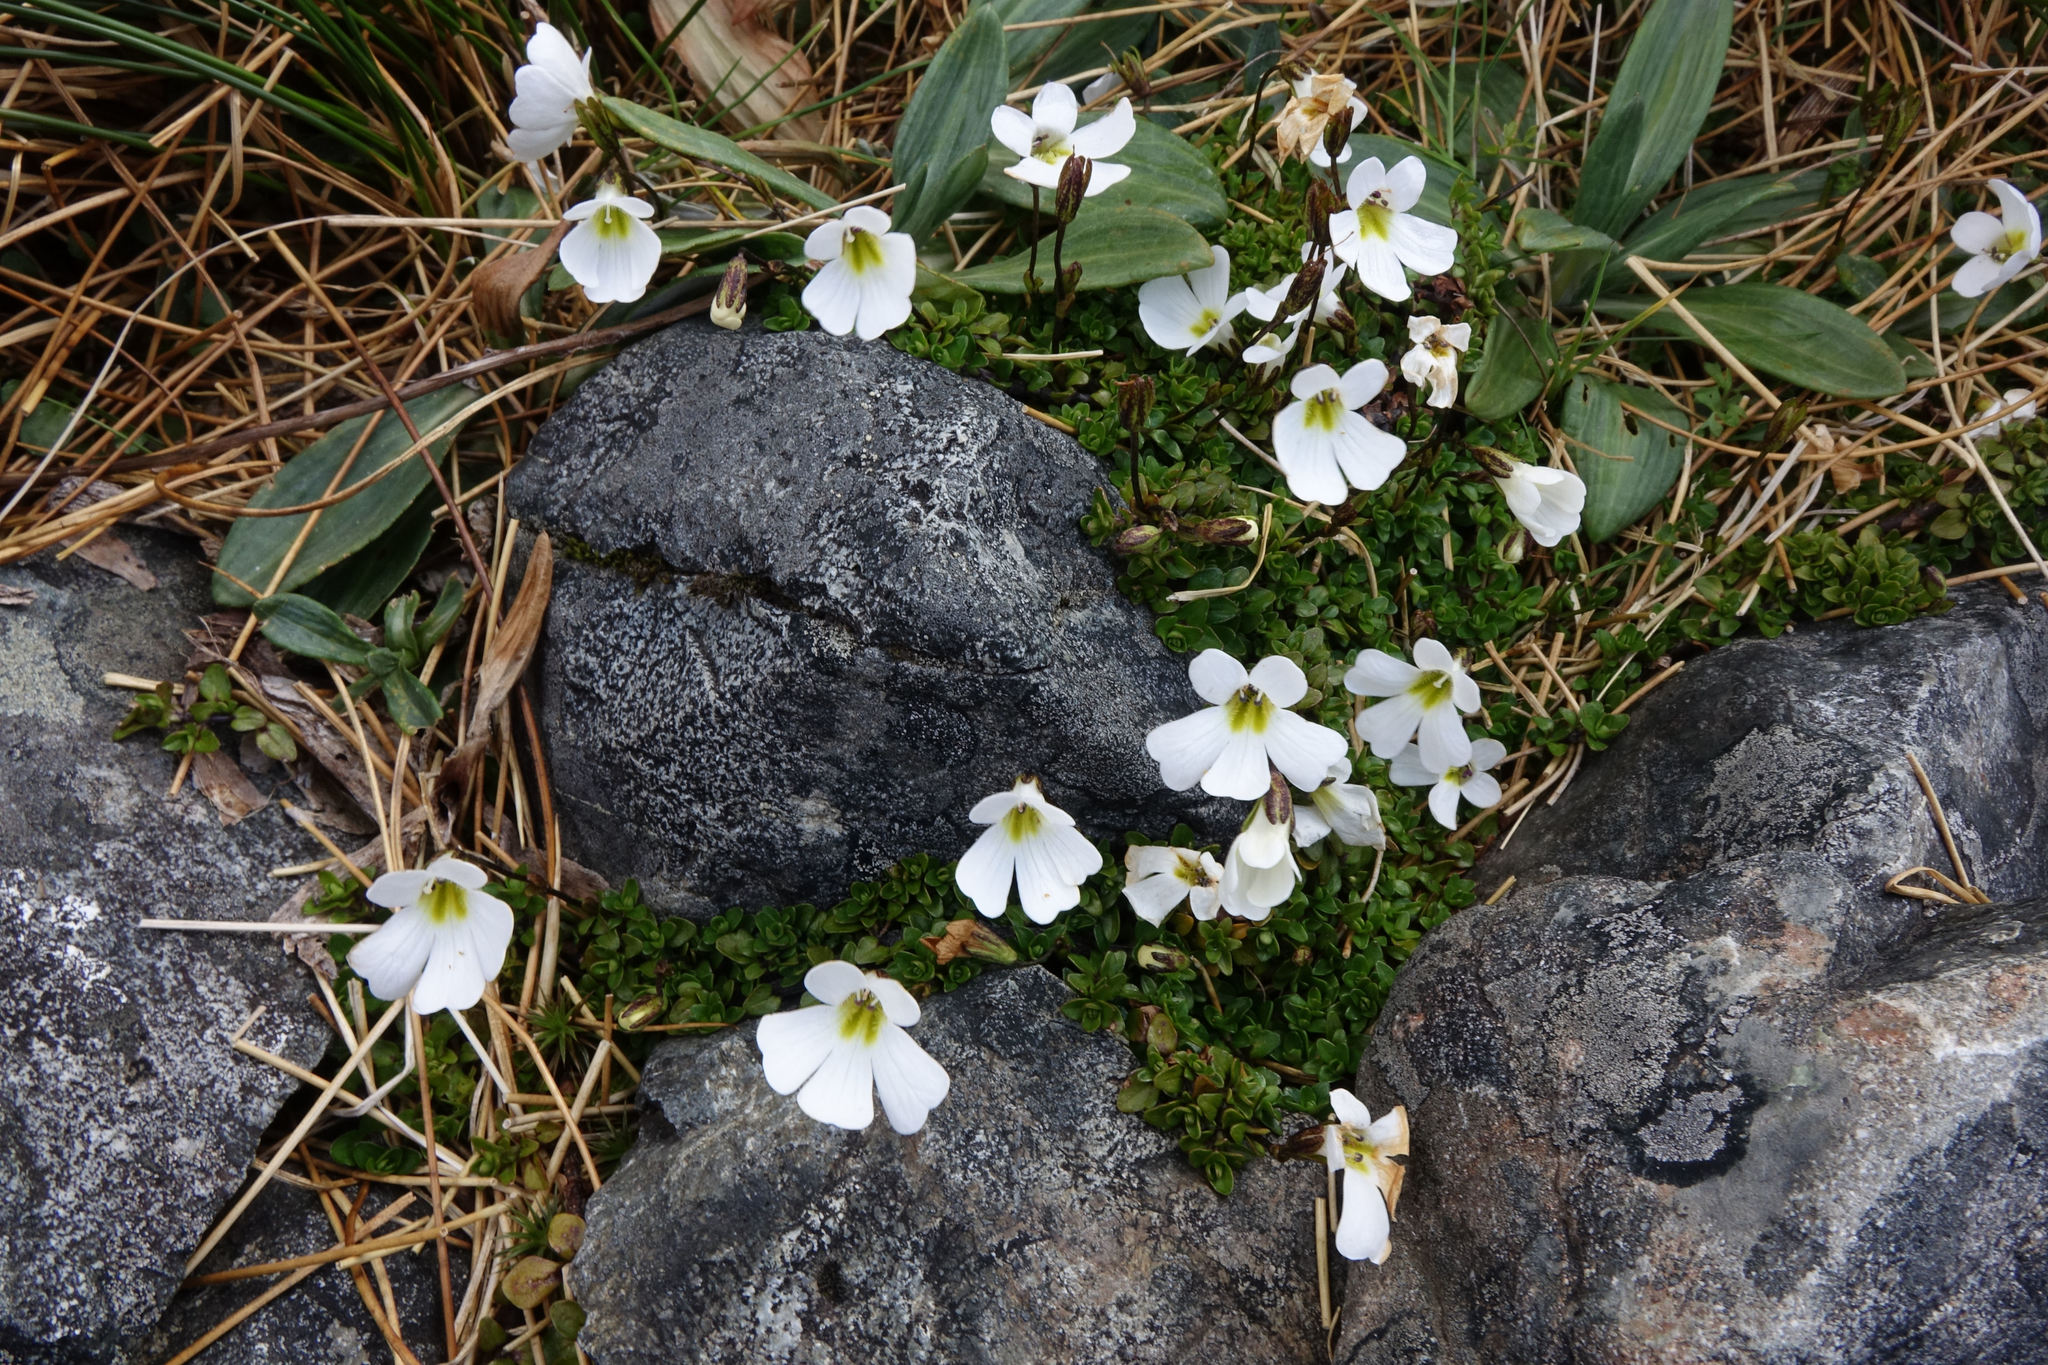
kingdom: Plantae
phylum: Tracheophyta
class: Magnoliopsida
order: Lamiales
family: Plantaginaceae
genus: Ourisia
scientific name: Ourisia caespitosa
